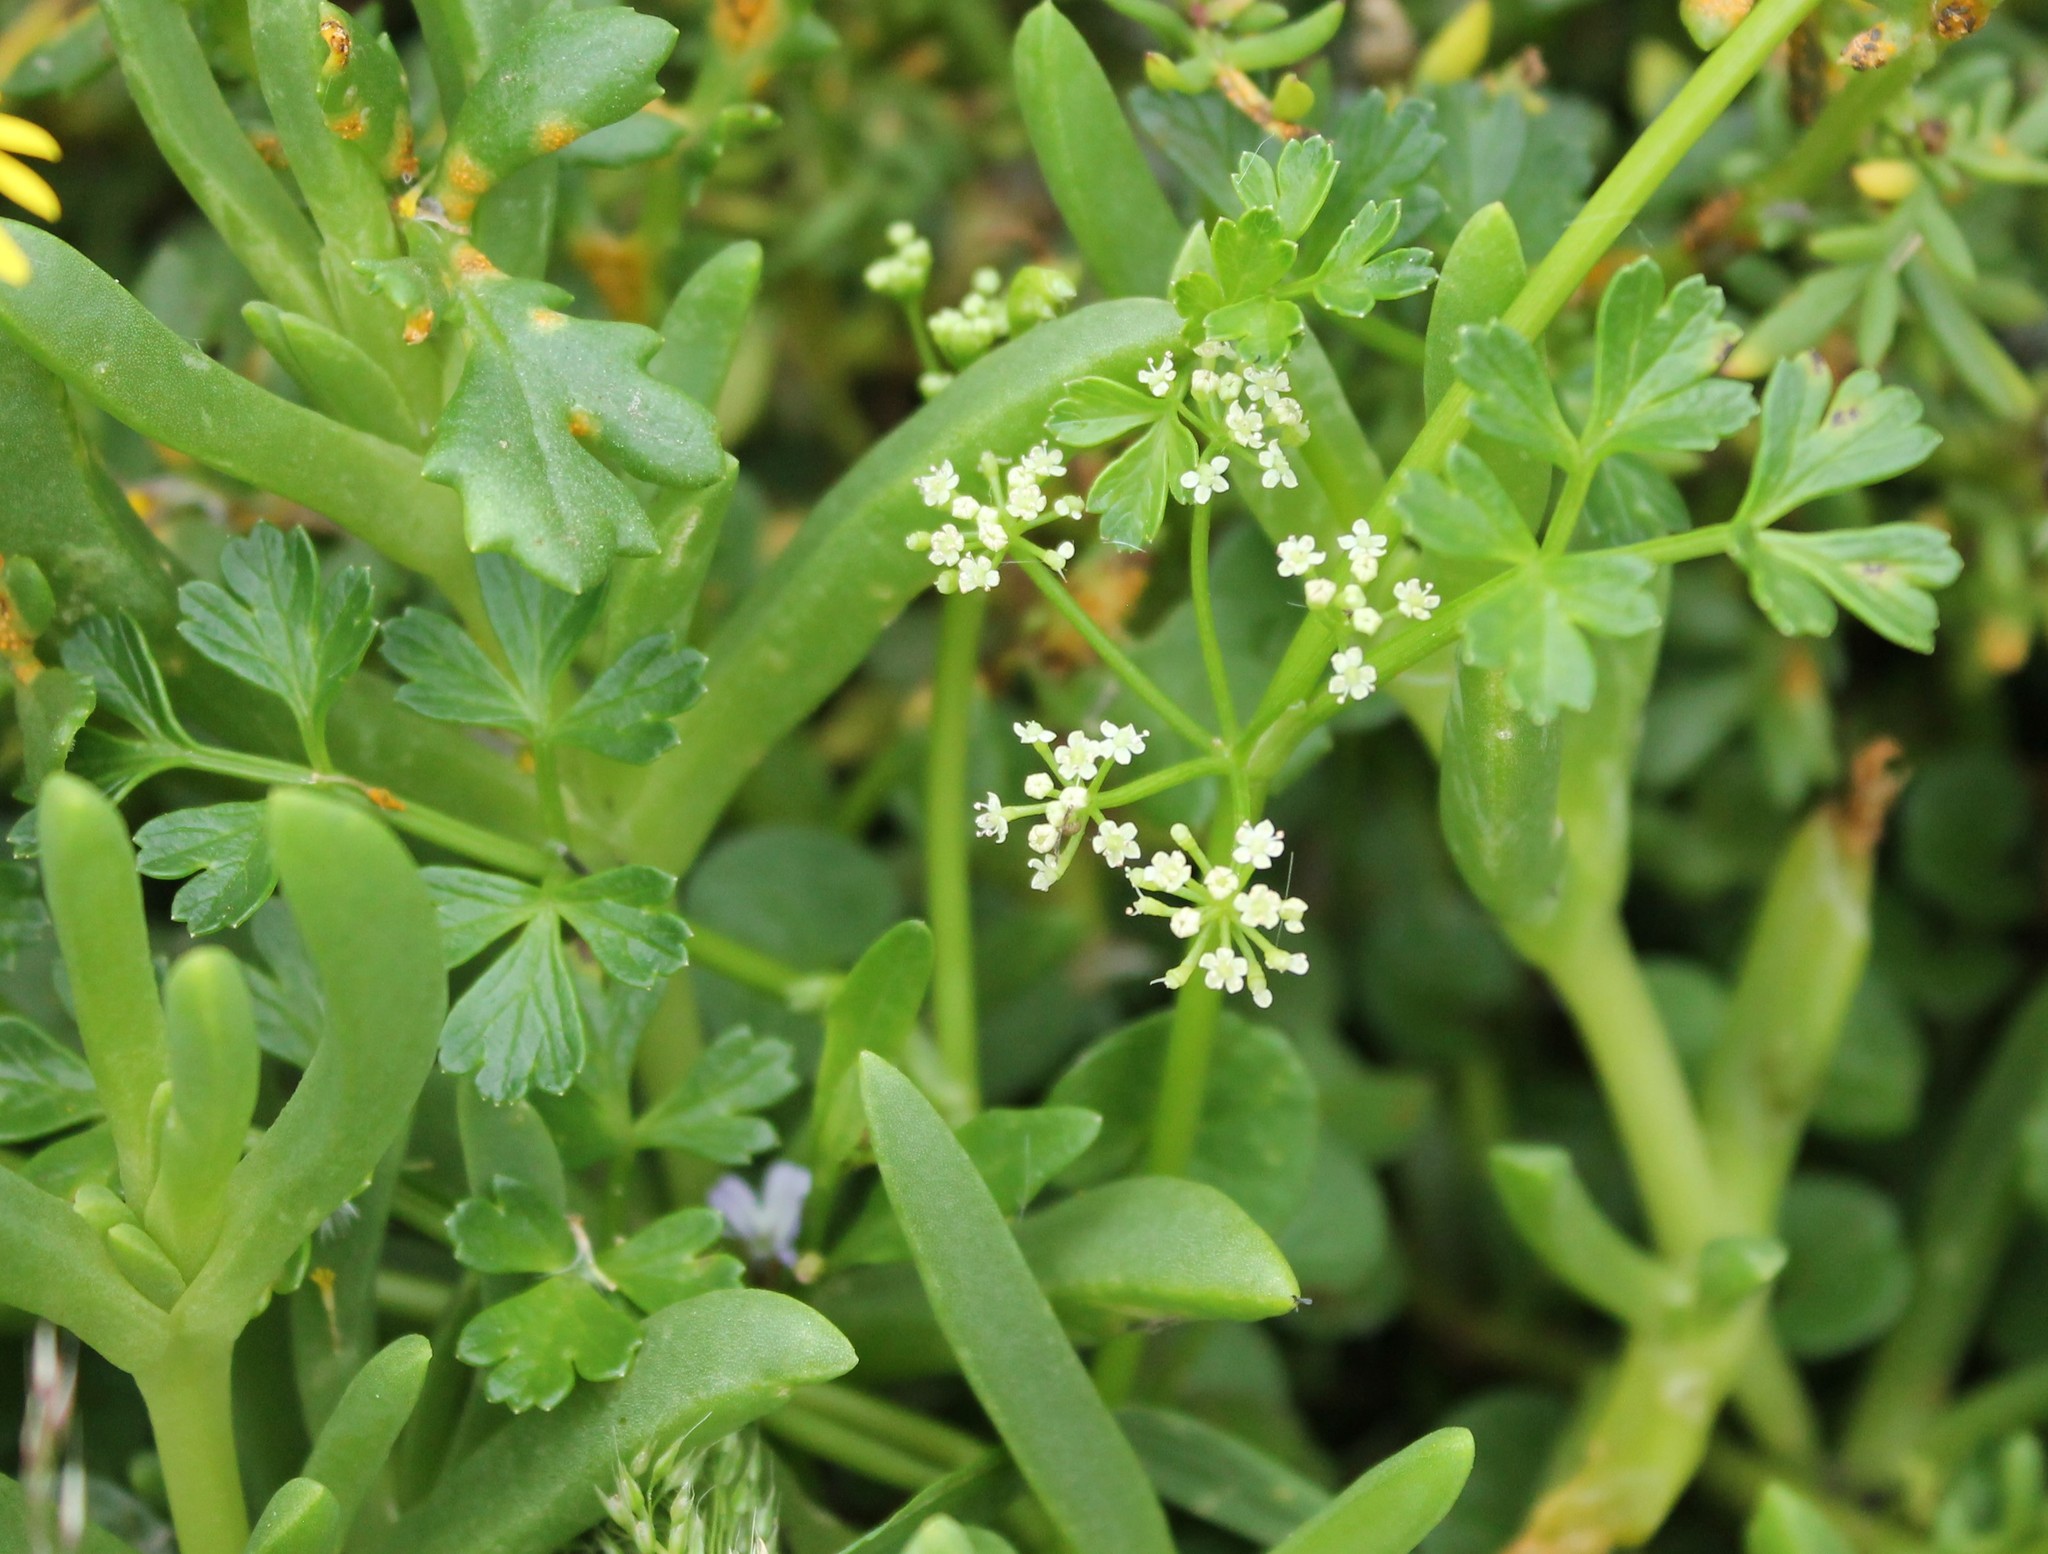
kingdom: Plantae
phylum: Tracheophyta
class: Magnoliopsida
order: Apiales
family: Apiaceae
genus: Apium
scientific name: Apium prostratum
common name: Prostrate marshwort
